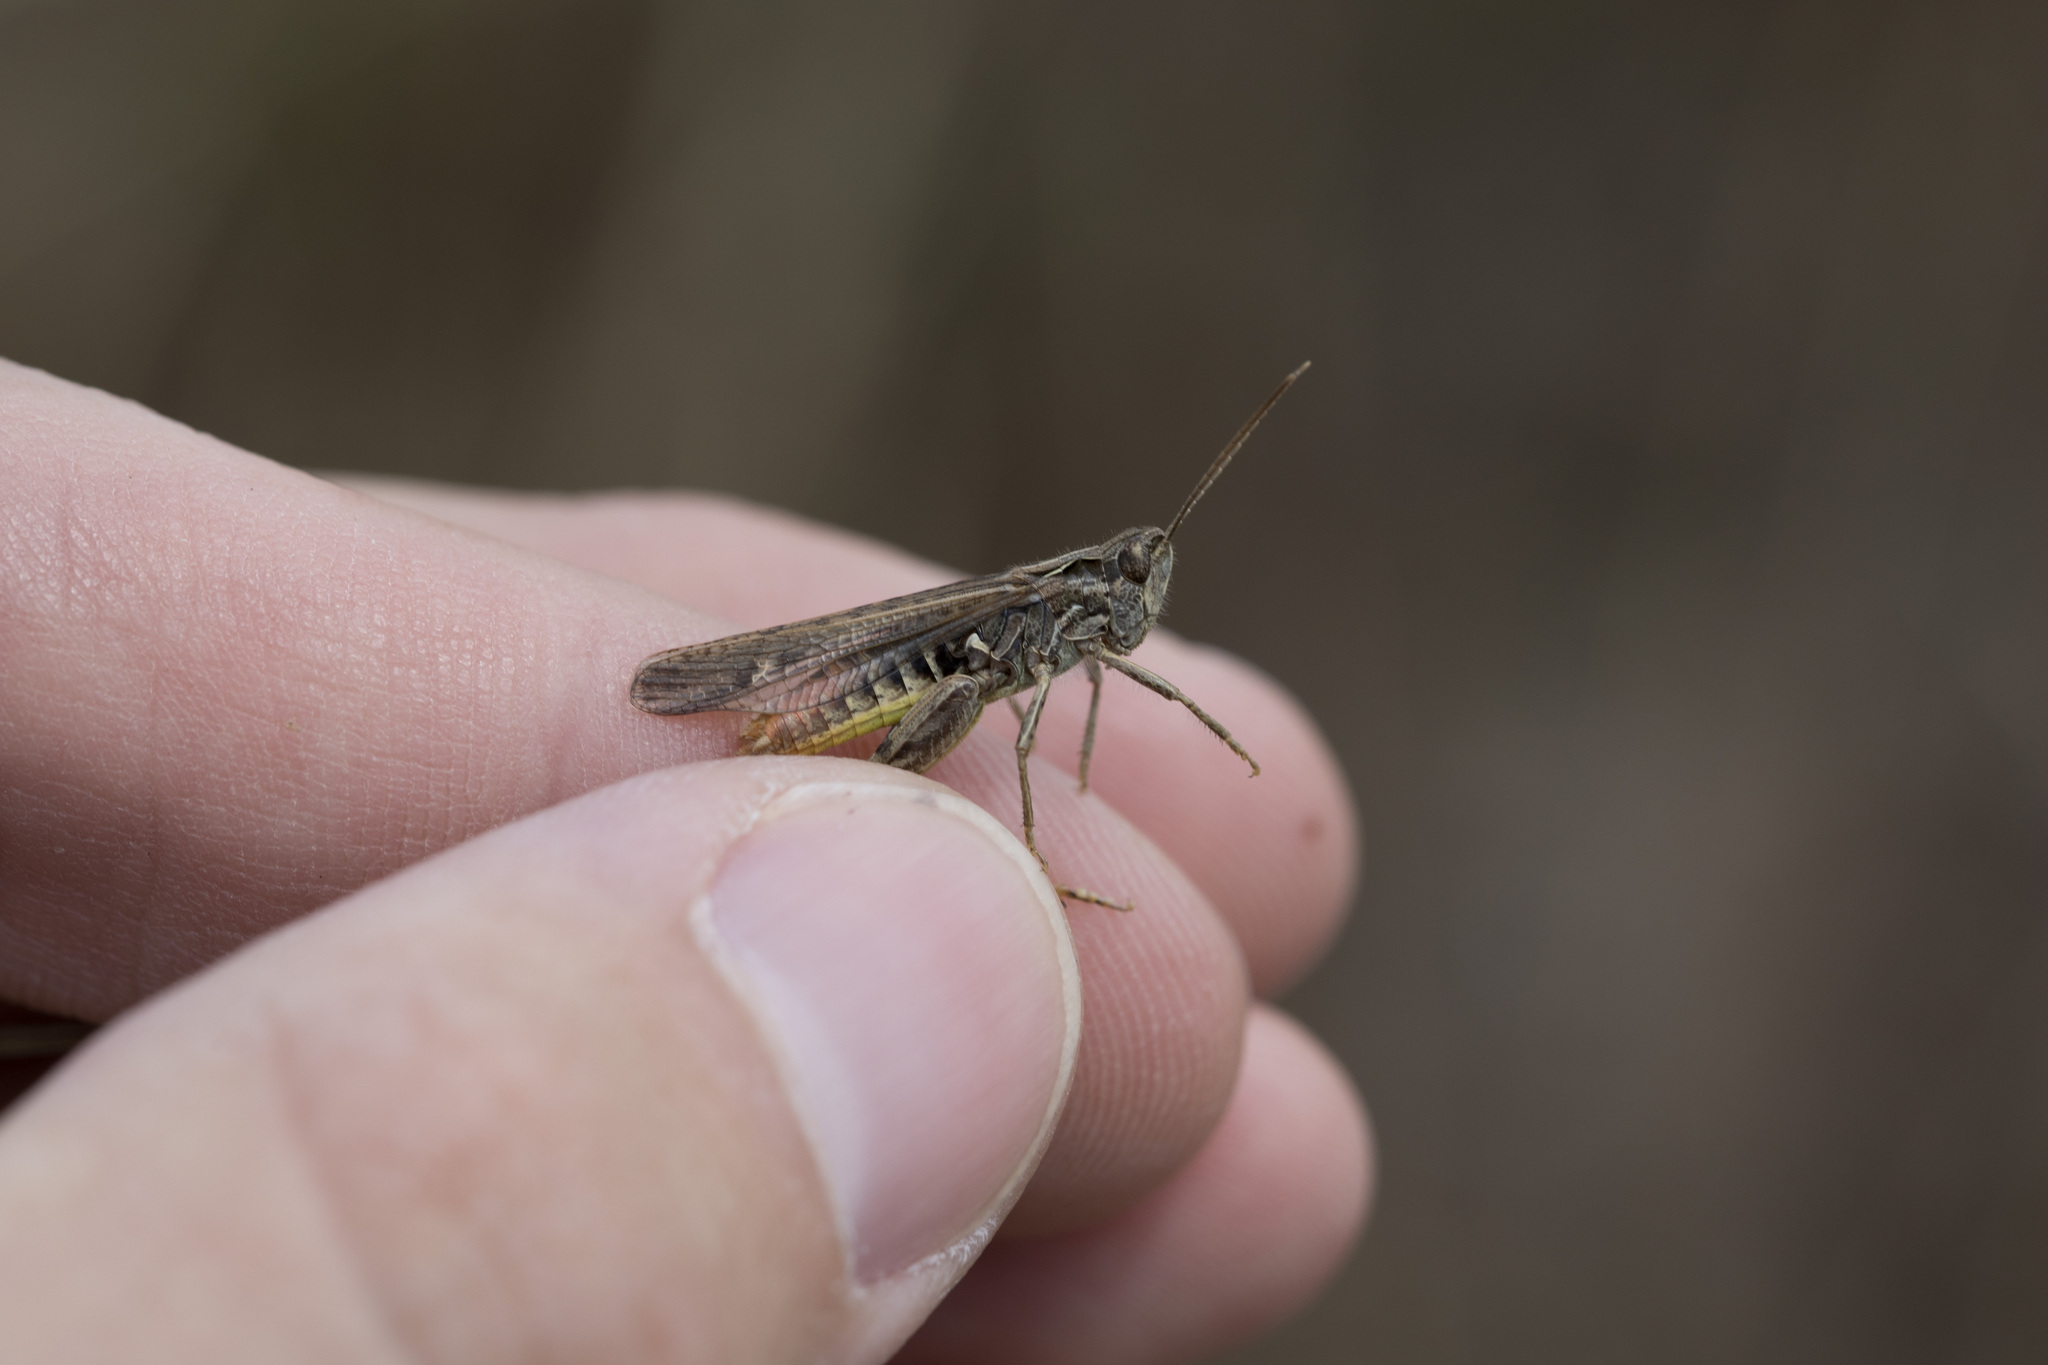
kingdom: Animalia
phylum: Arthropoda
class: Insecta
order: Orthoptera
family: Acrididae
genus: Chorthippus
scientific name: Chorthippus biguttulus
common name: Bow-winged grasshopper
